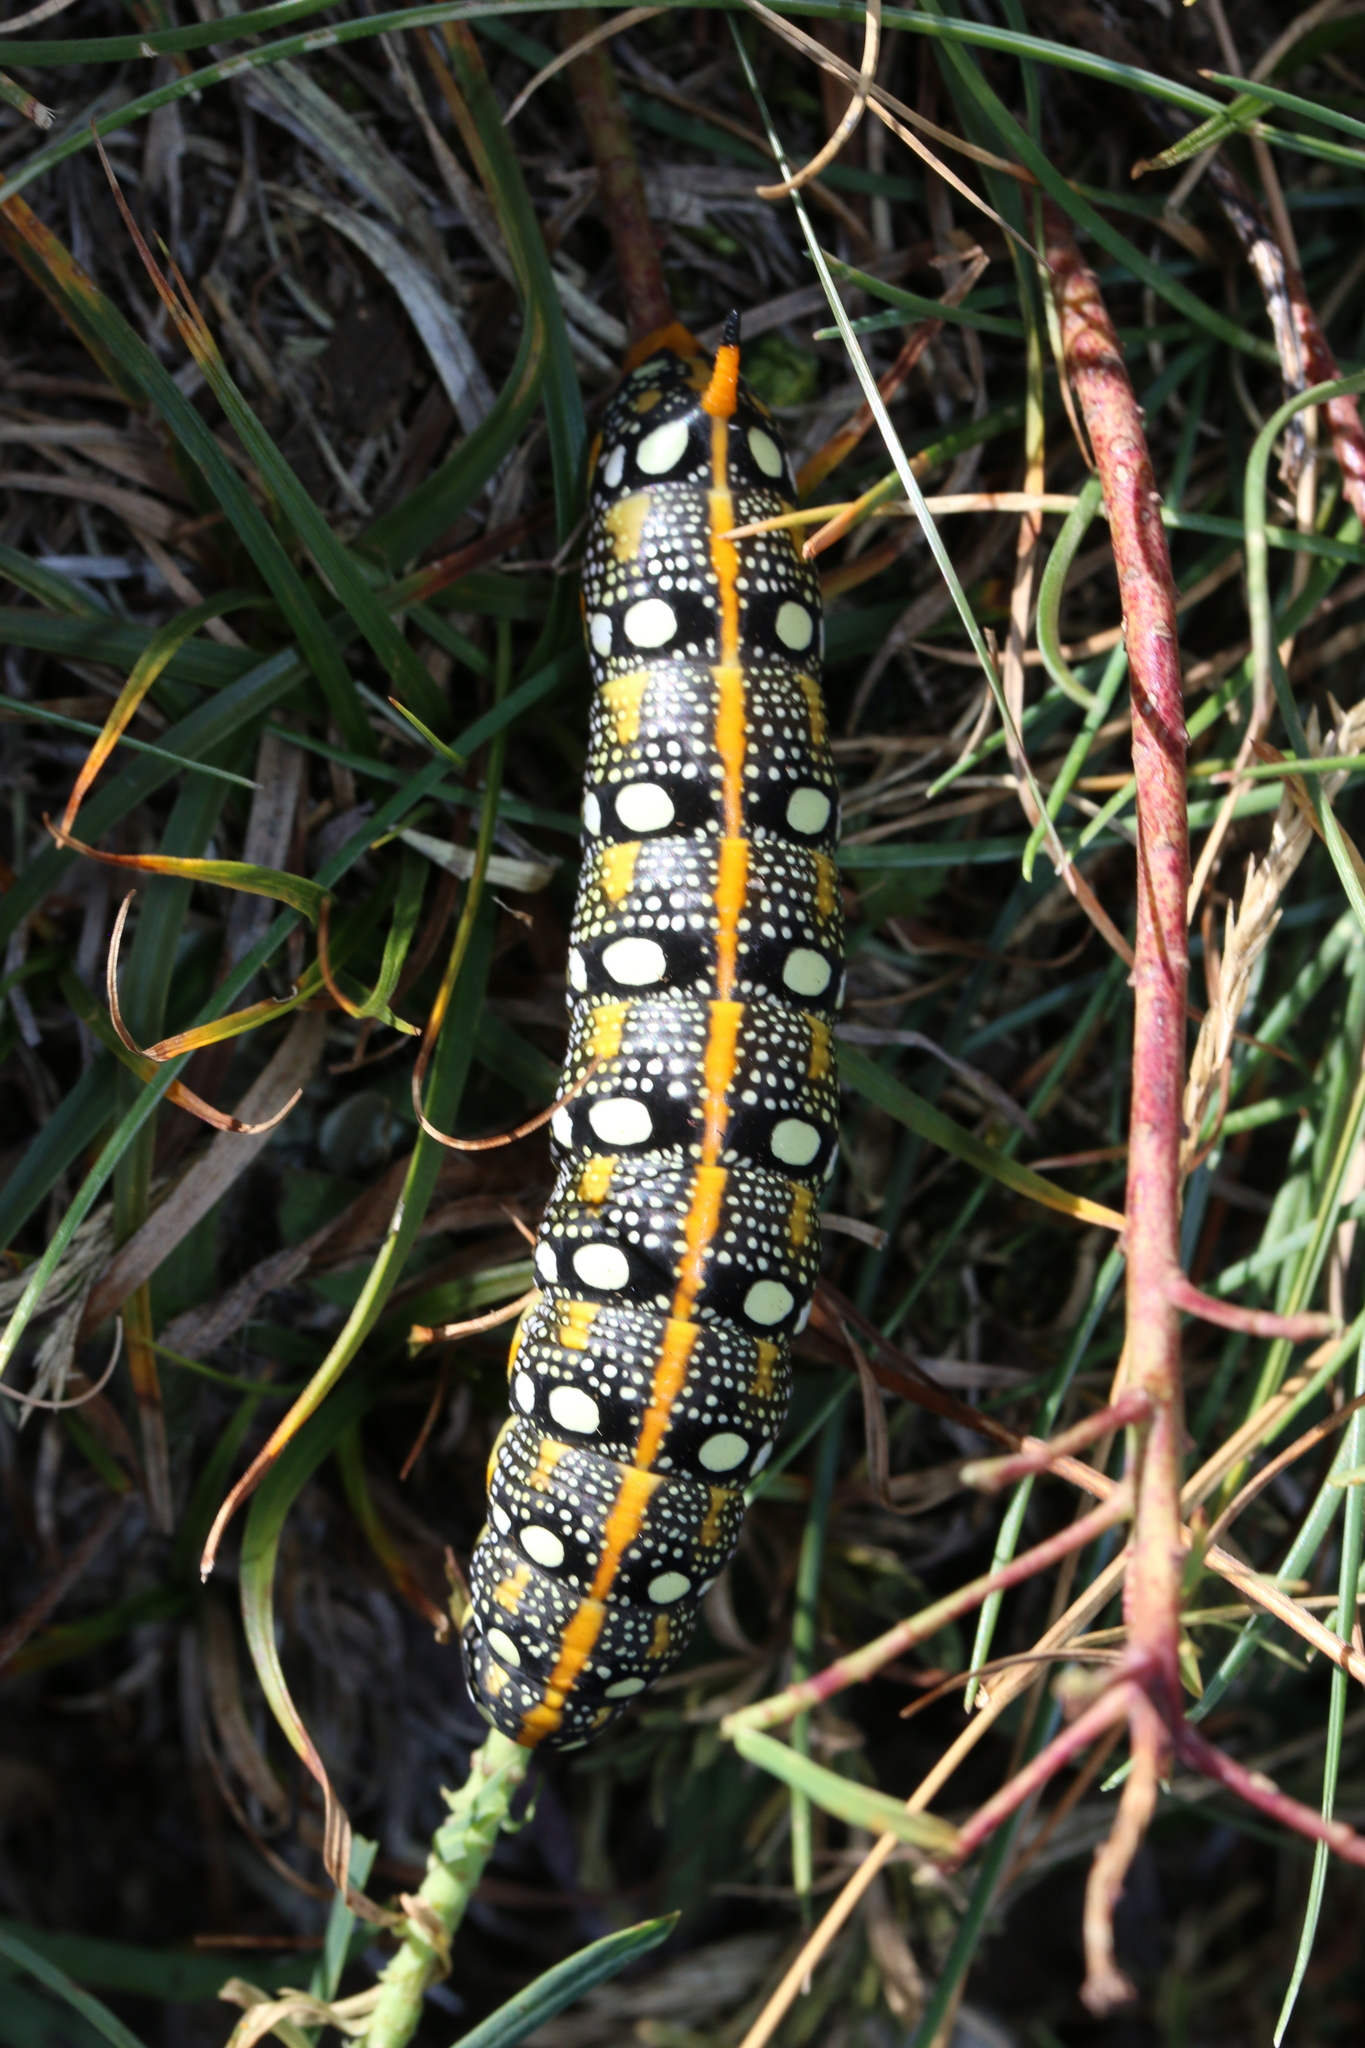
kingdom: Animalia
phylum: Arthropoda
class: Insecta
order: Lepidoptera
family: Sphingidae
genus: Hyles
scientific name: Hyles euphorbiae
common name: Spurge hawk-moth
